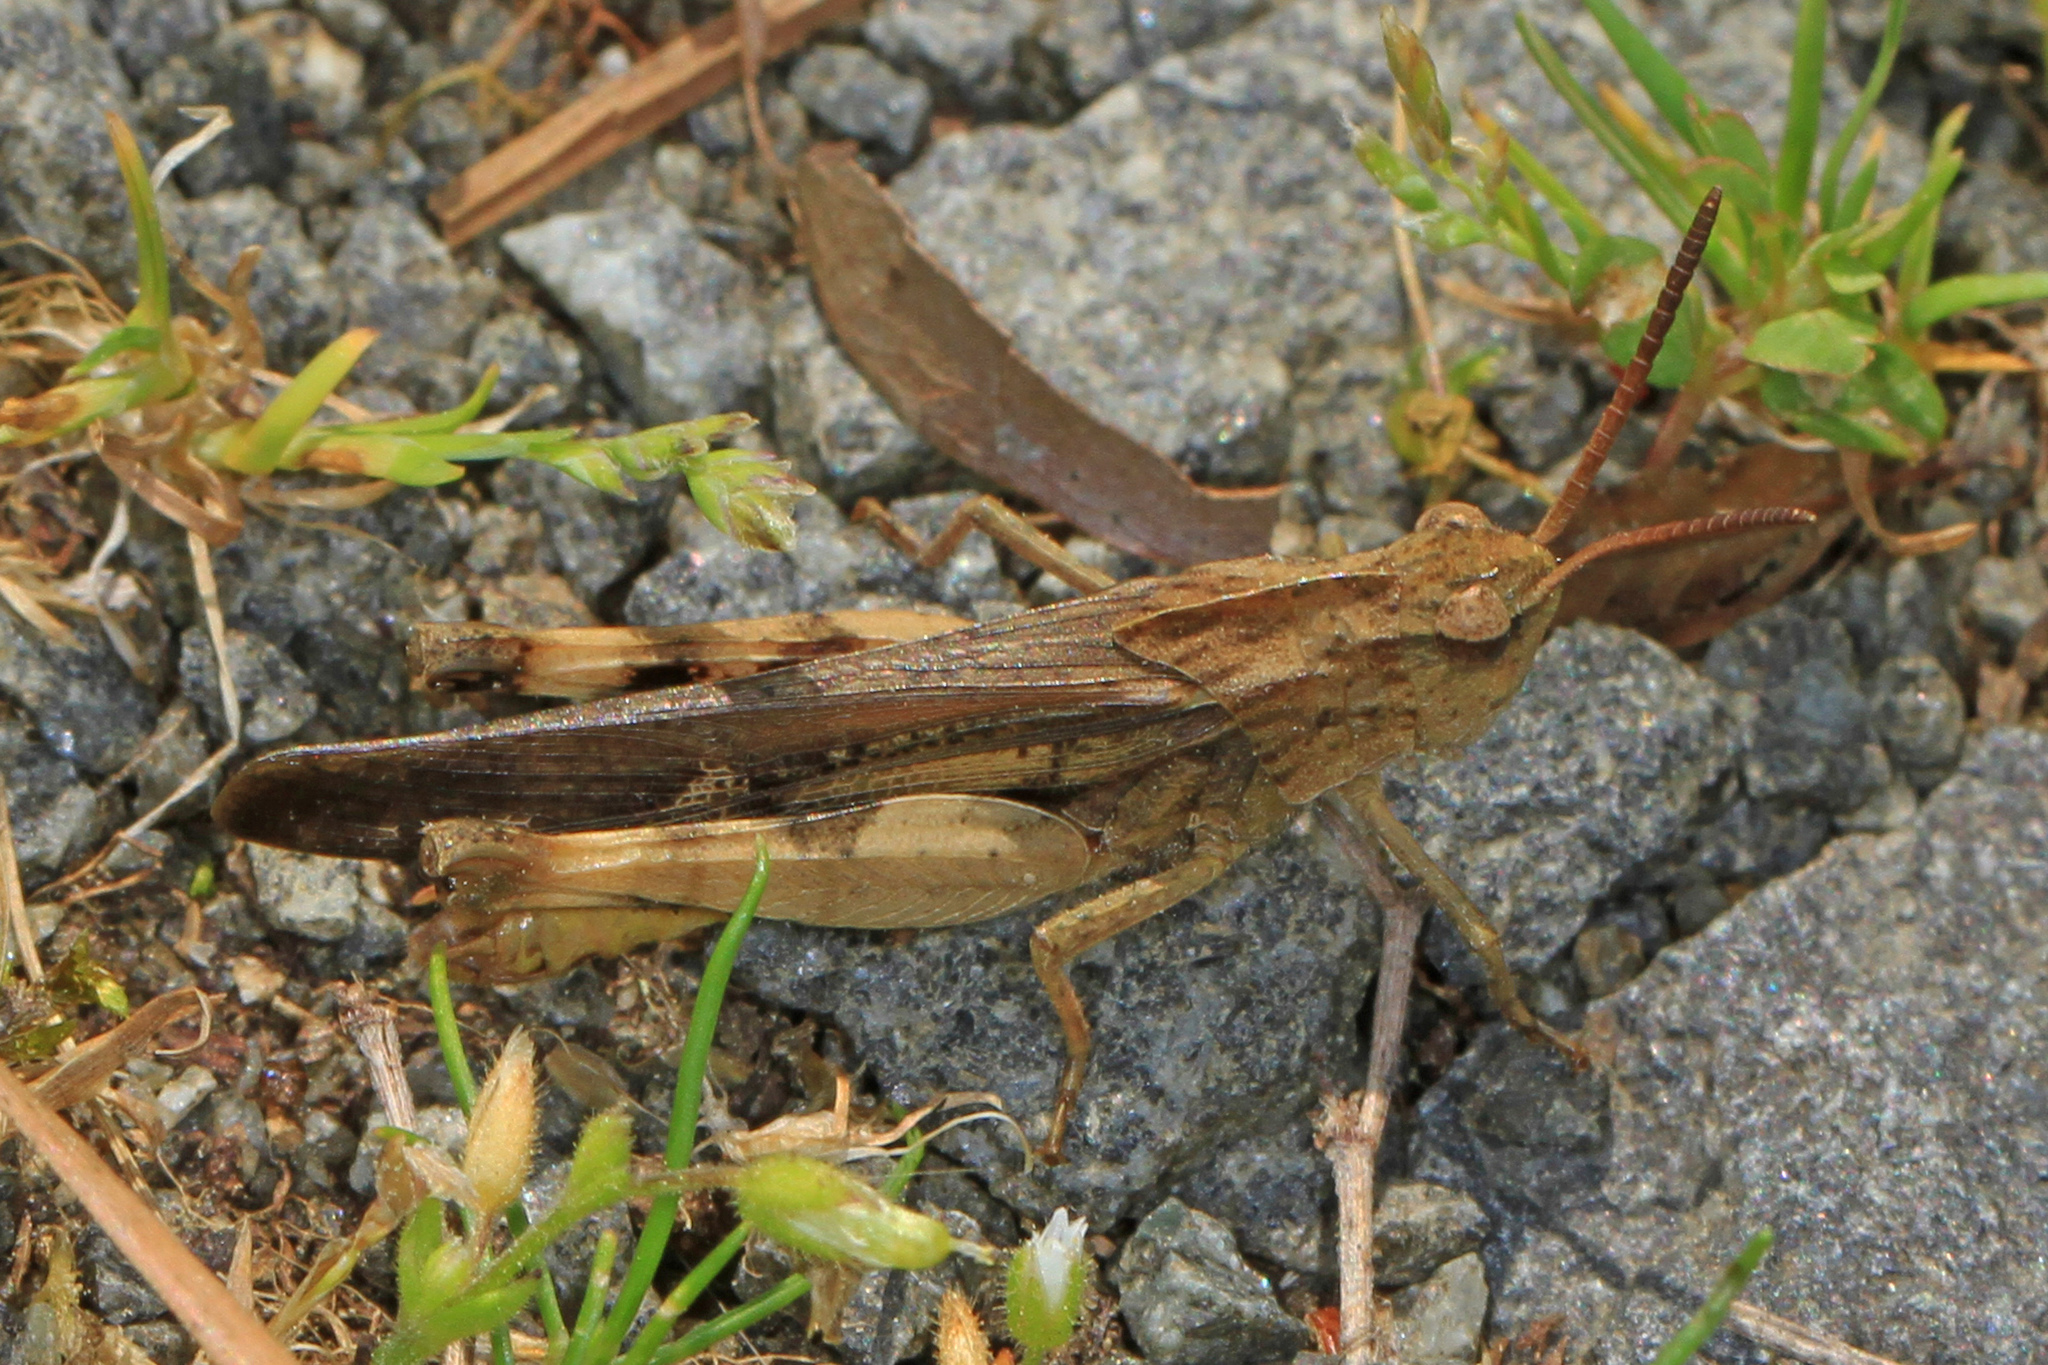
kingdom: Animalia
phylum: Arthropoda
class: Insecta
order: Orthoptera
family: Acrididae
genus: Chortophaga
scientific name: Chortophaga viridifasciata
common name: Green-striped grasshopper
